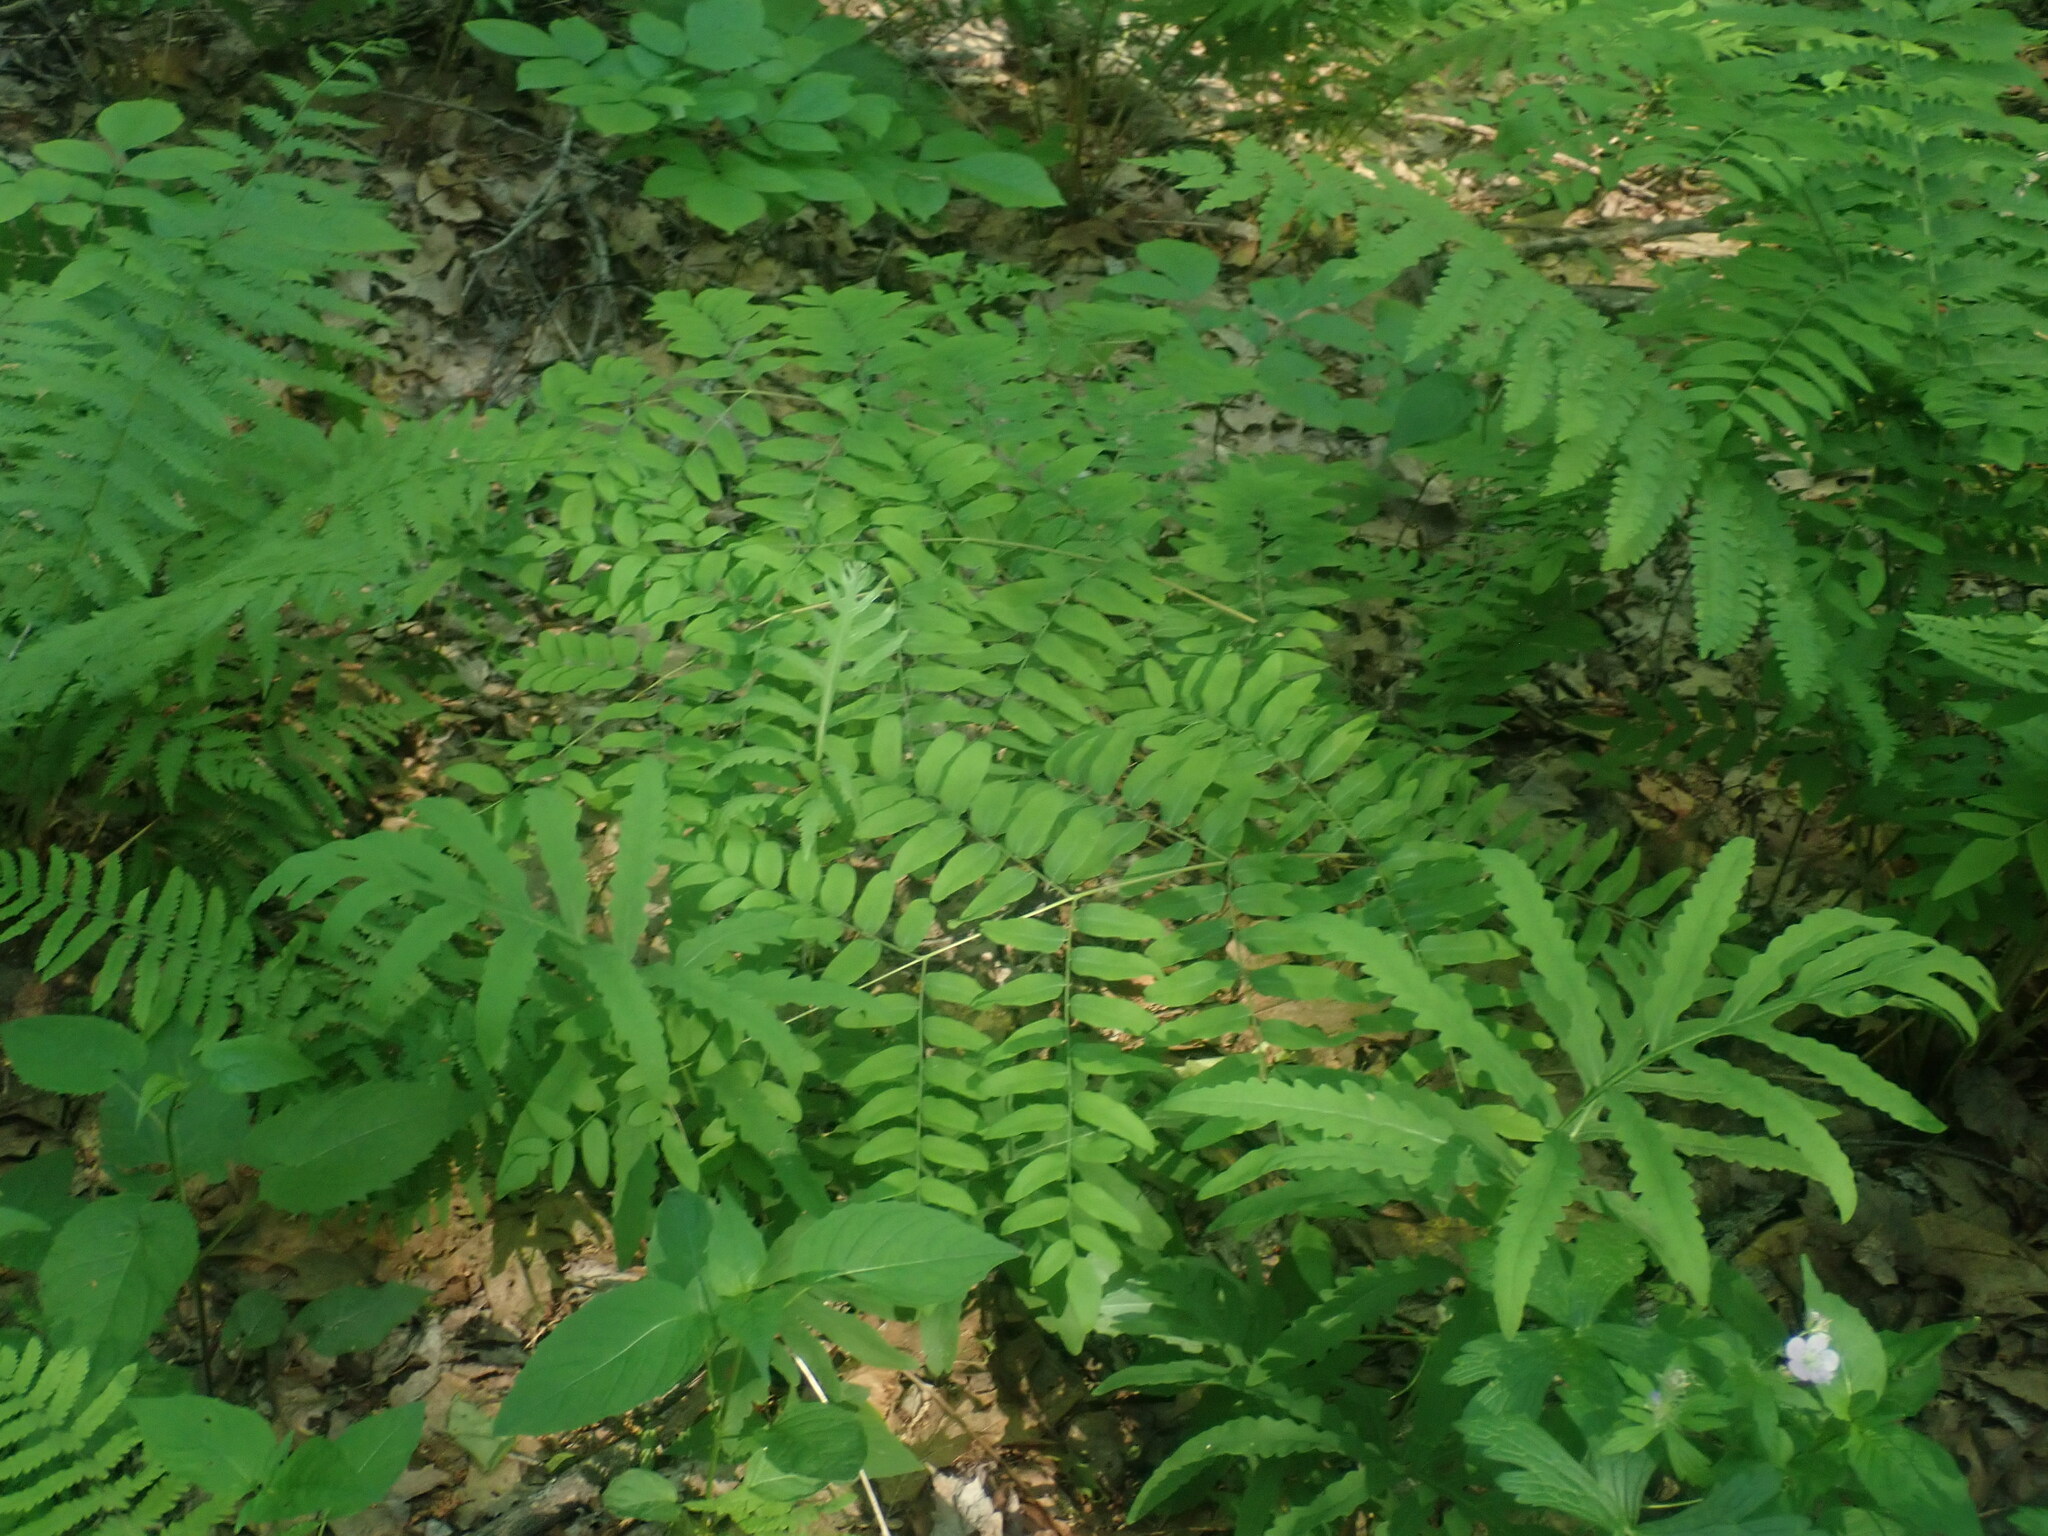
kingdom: Plantae
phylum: Tracheophyta
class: Polypodiopsida
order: Osmundales
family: Osmundaceae
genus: Osmunda
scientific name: Osmunda spectabilis
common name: American royal fern
